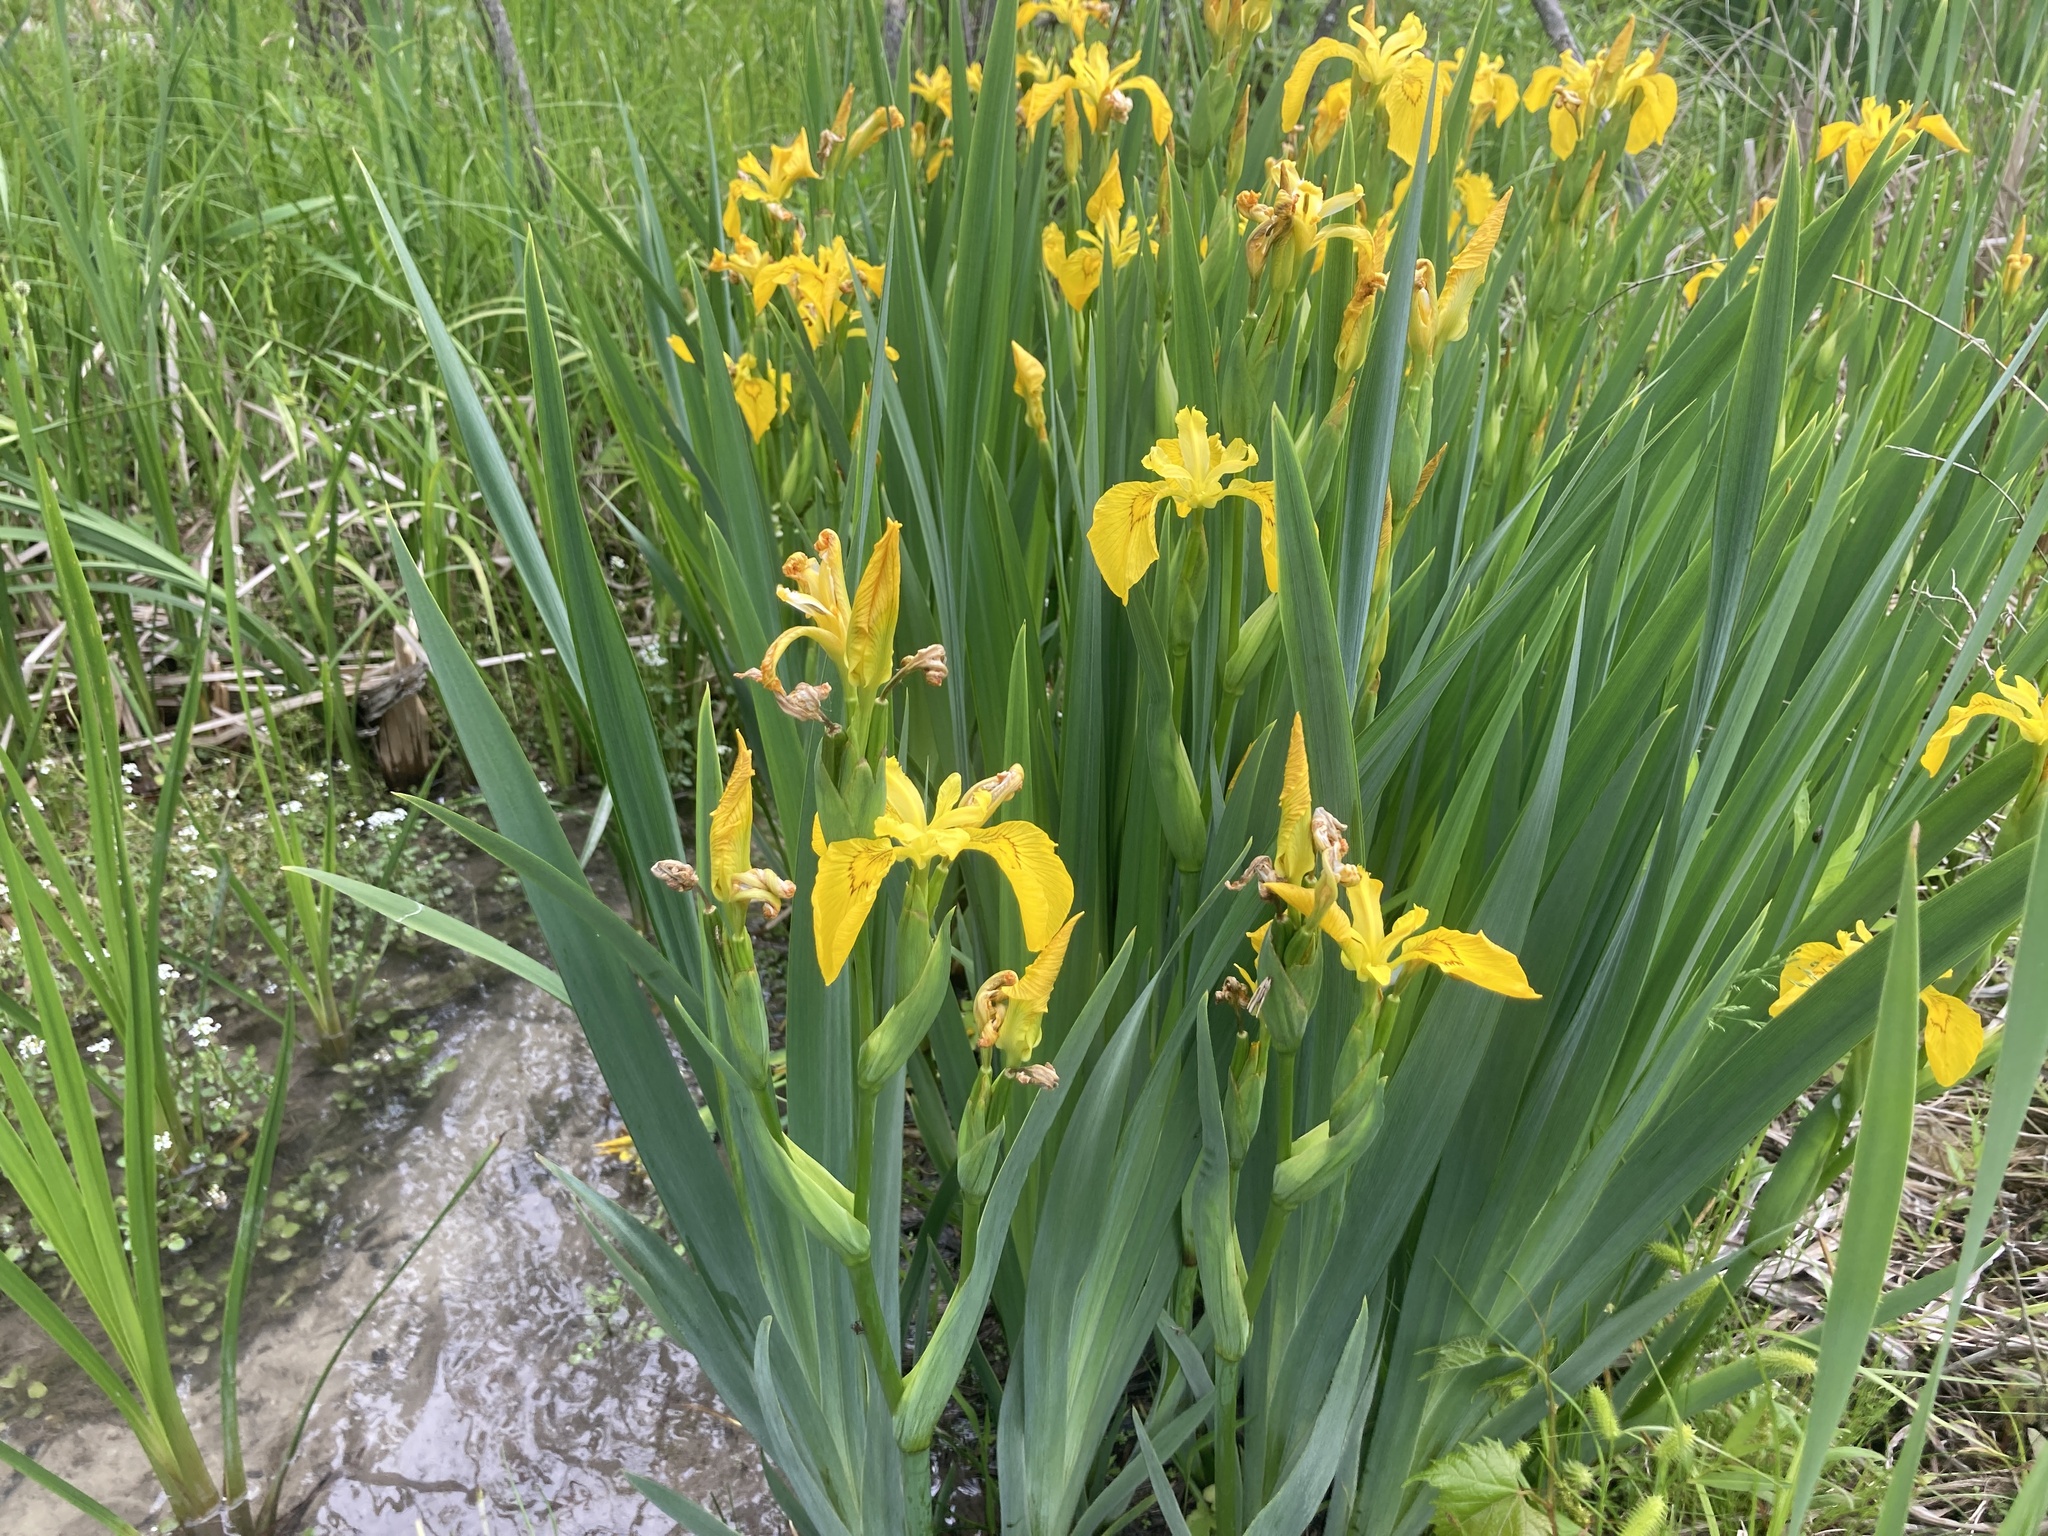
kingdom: Plantae
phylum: Tracheophyta
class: Liliopsida
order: Asparagales
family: Iridaceae
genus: Iris
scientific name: Iris pseudacorus
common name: Yellow flag
